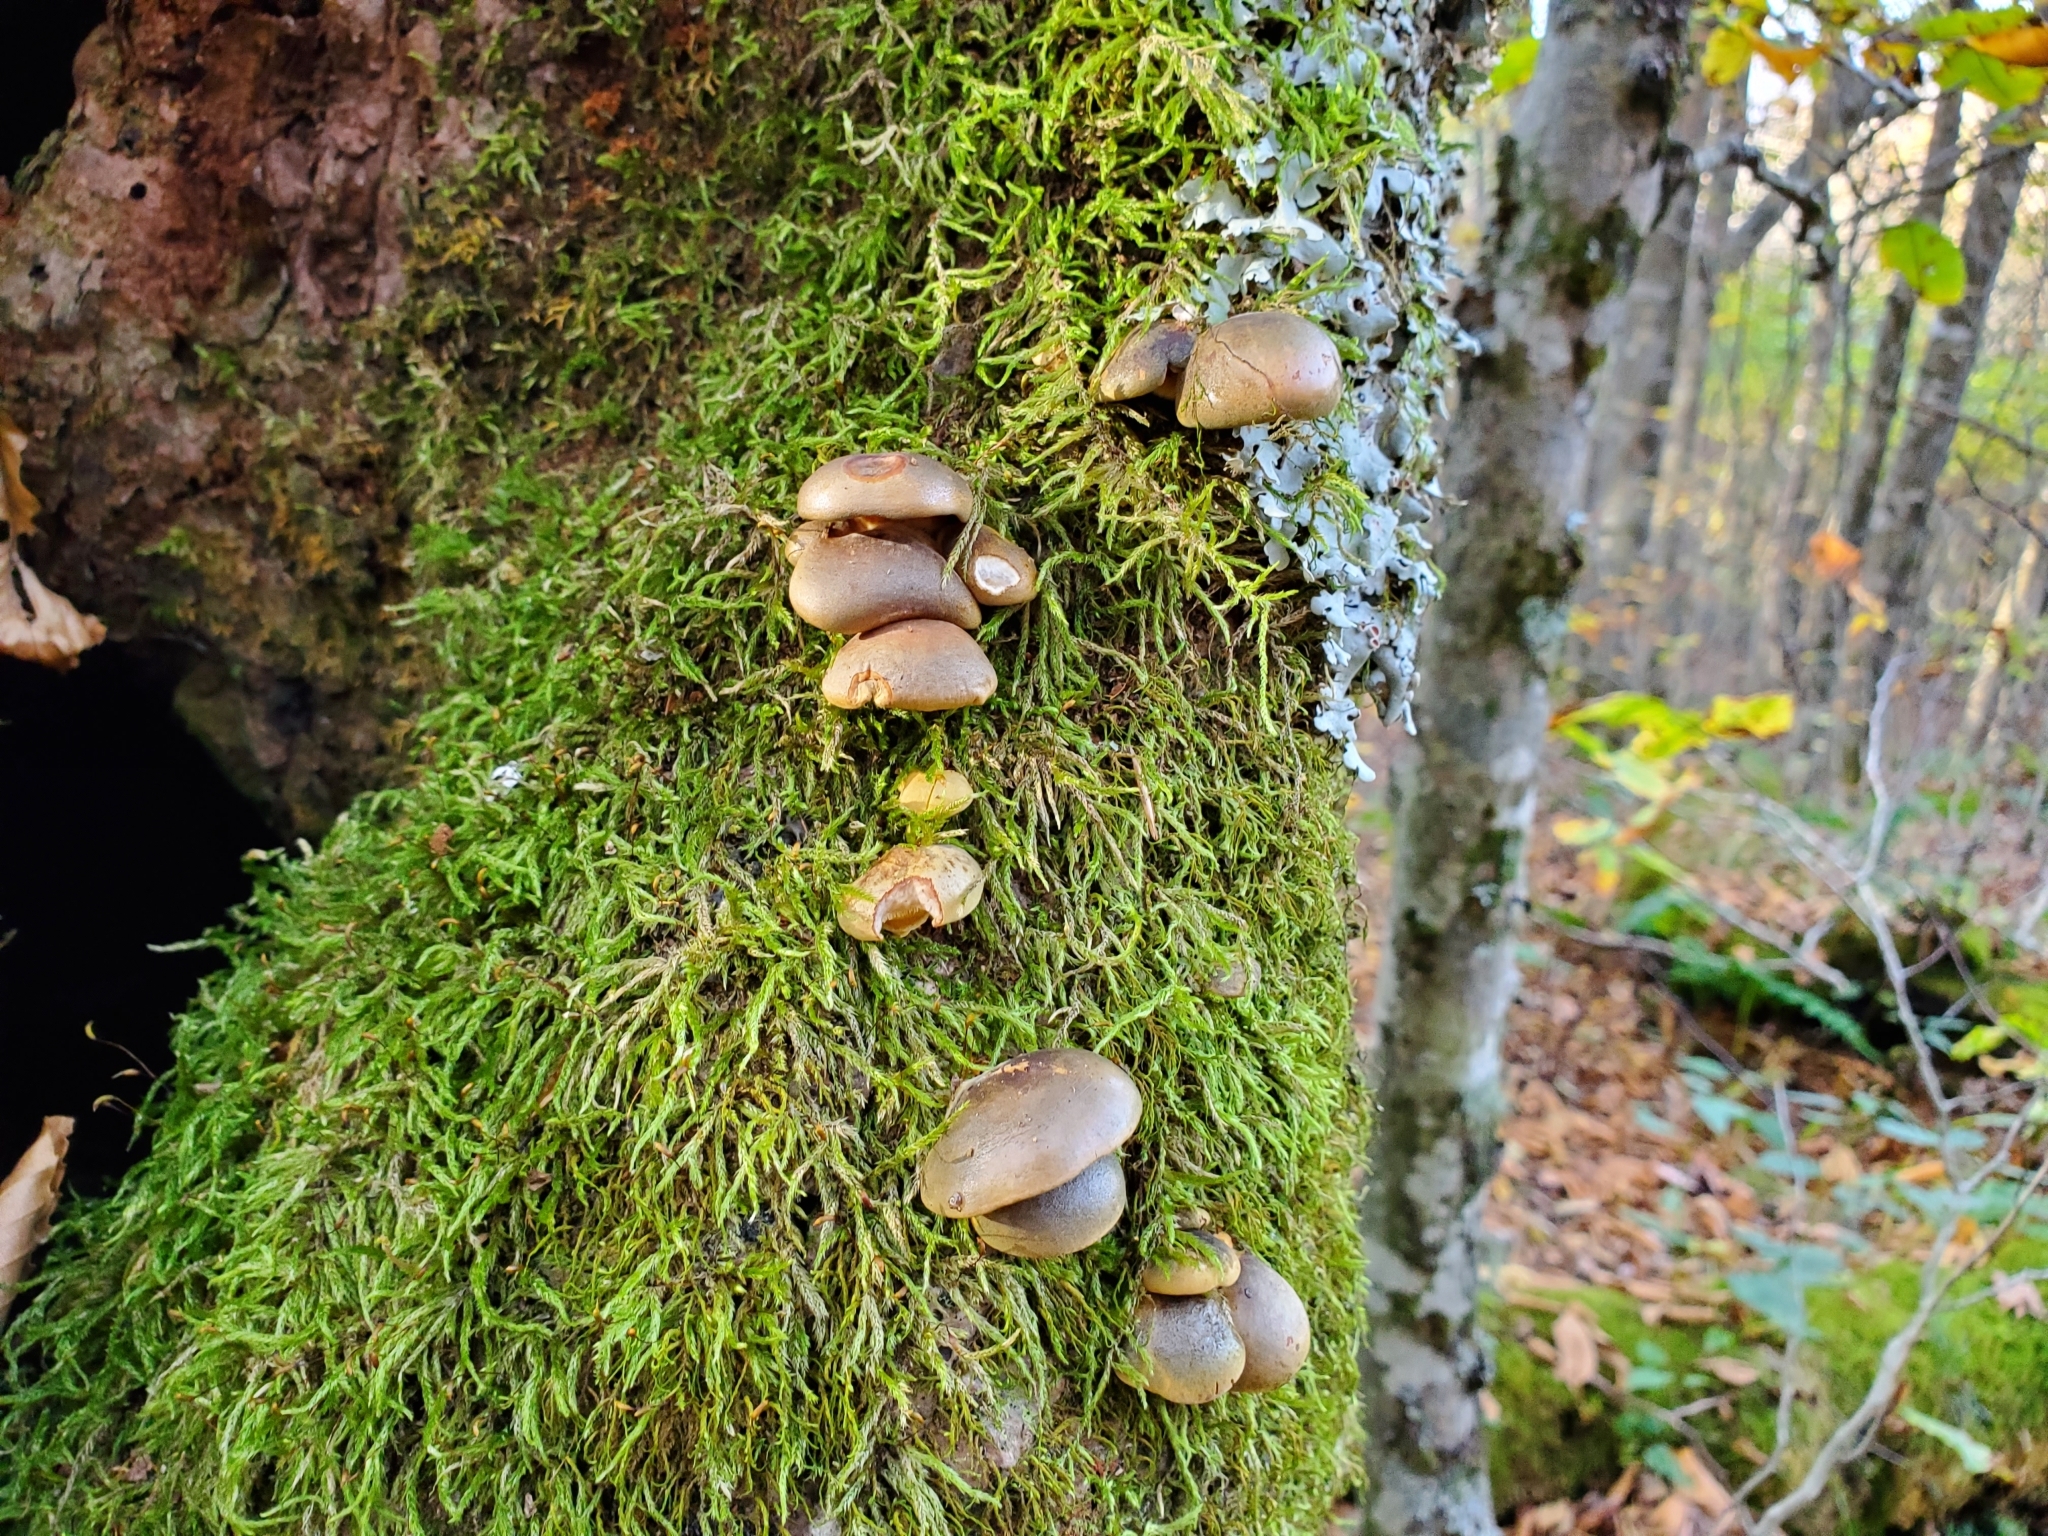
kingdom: Fungi
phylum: Basidiomycota
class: Agaricomycetes
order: Agaricales
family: Sarcomyxaceae
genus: Sarcomyxa
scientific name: Sarcomyxa serotina
